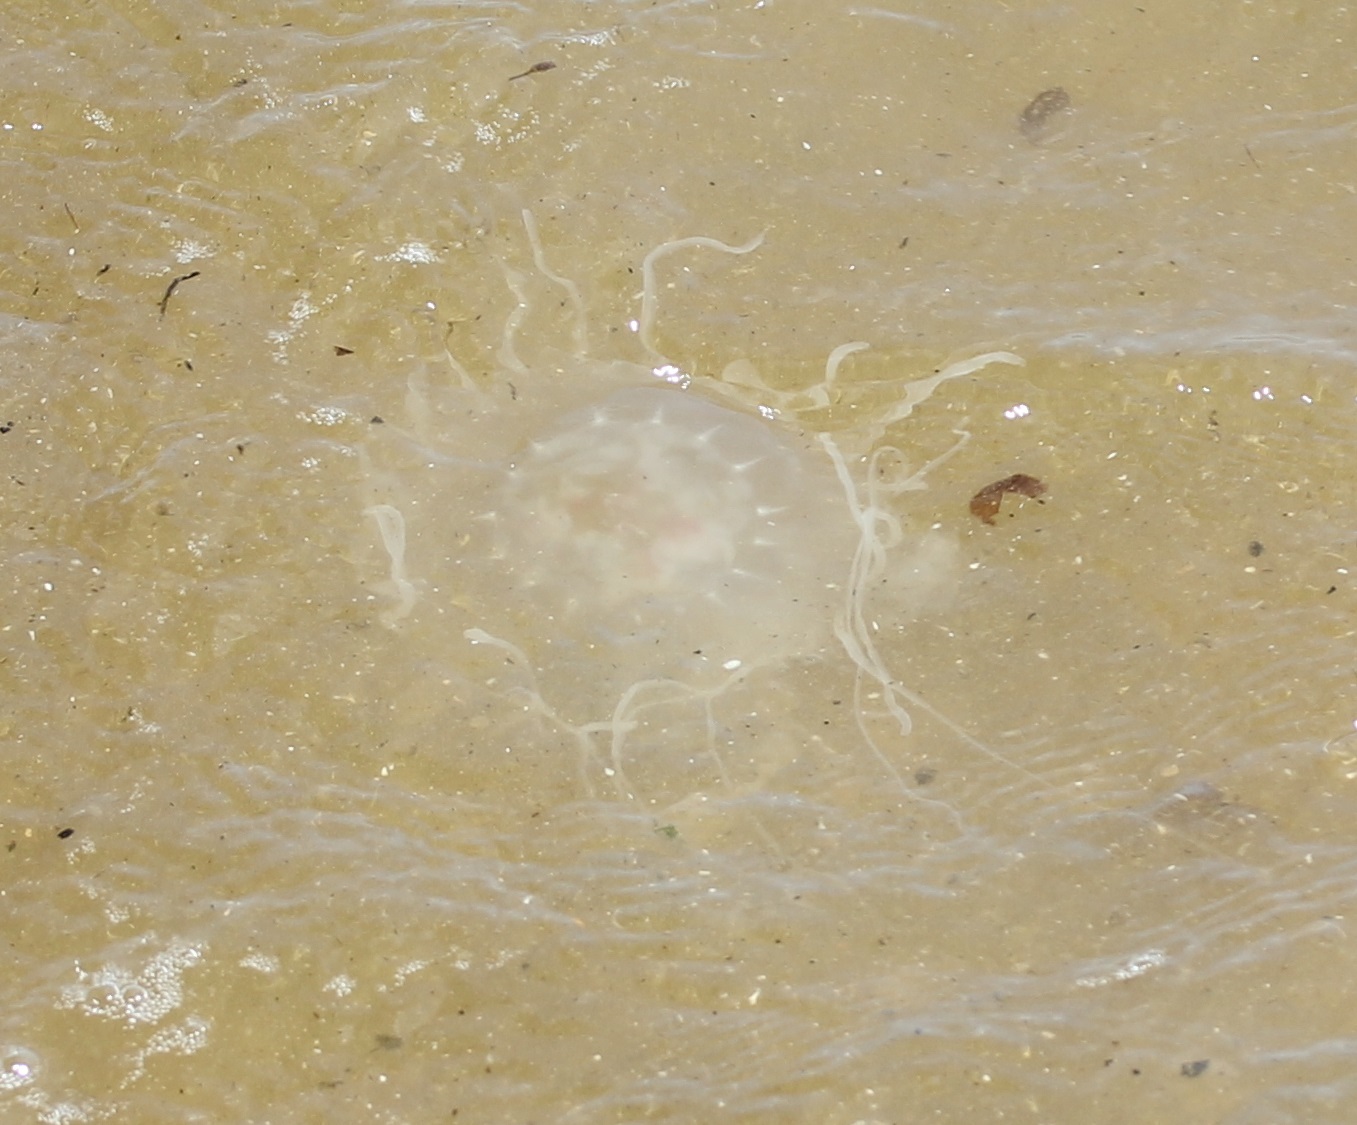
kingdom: Animalia
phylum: Cnidaria
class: Scyphozoa
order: Semaeostomeae
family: Pelagiidae
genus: Chrysaora
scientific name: Chrysaora chesapeakei
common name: Bay nettle
